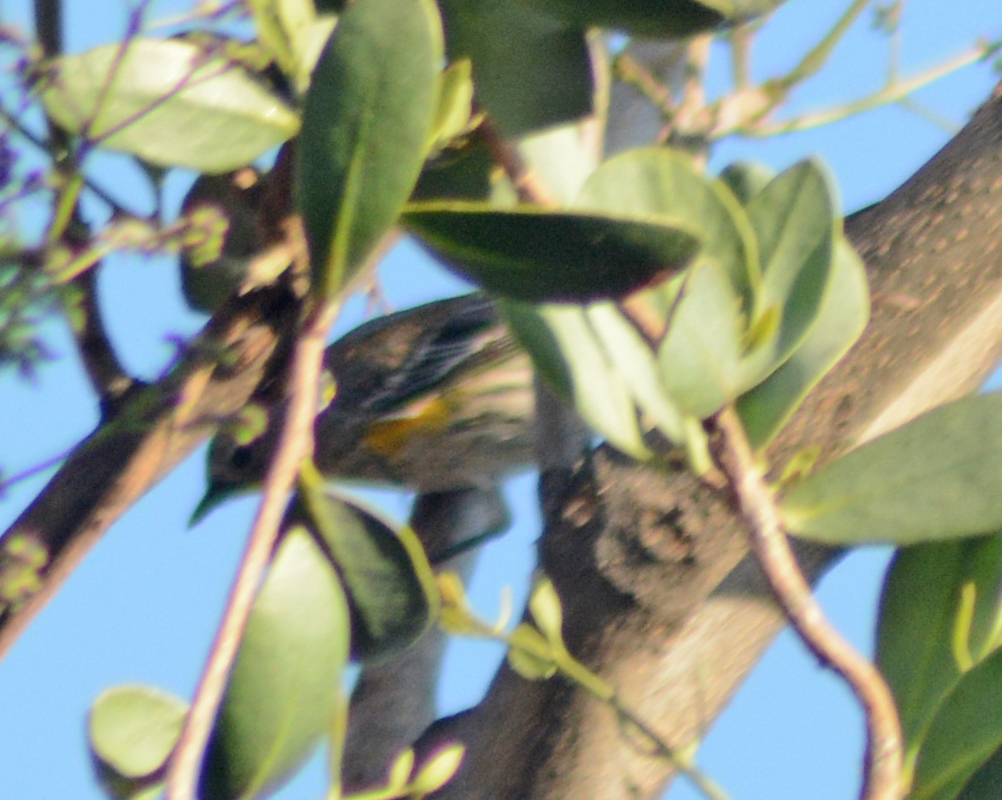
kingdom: Animalia
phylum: Chordata
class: Aves
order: Passeriformes
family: Parulidae
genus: Setophaga
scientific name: Setophaga coronata
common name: Myrtle warbler
